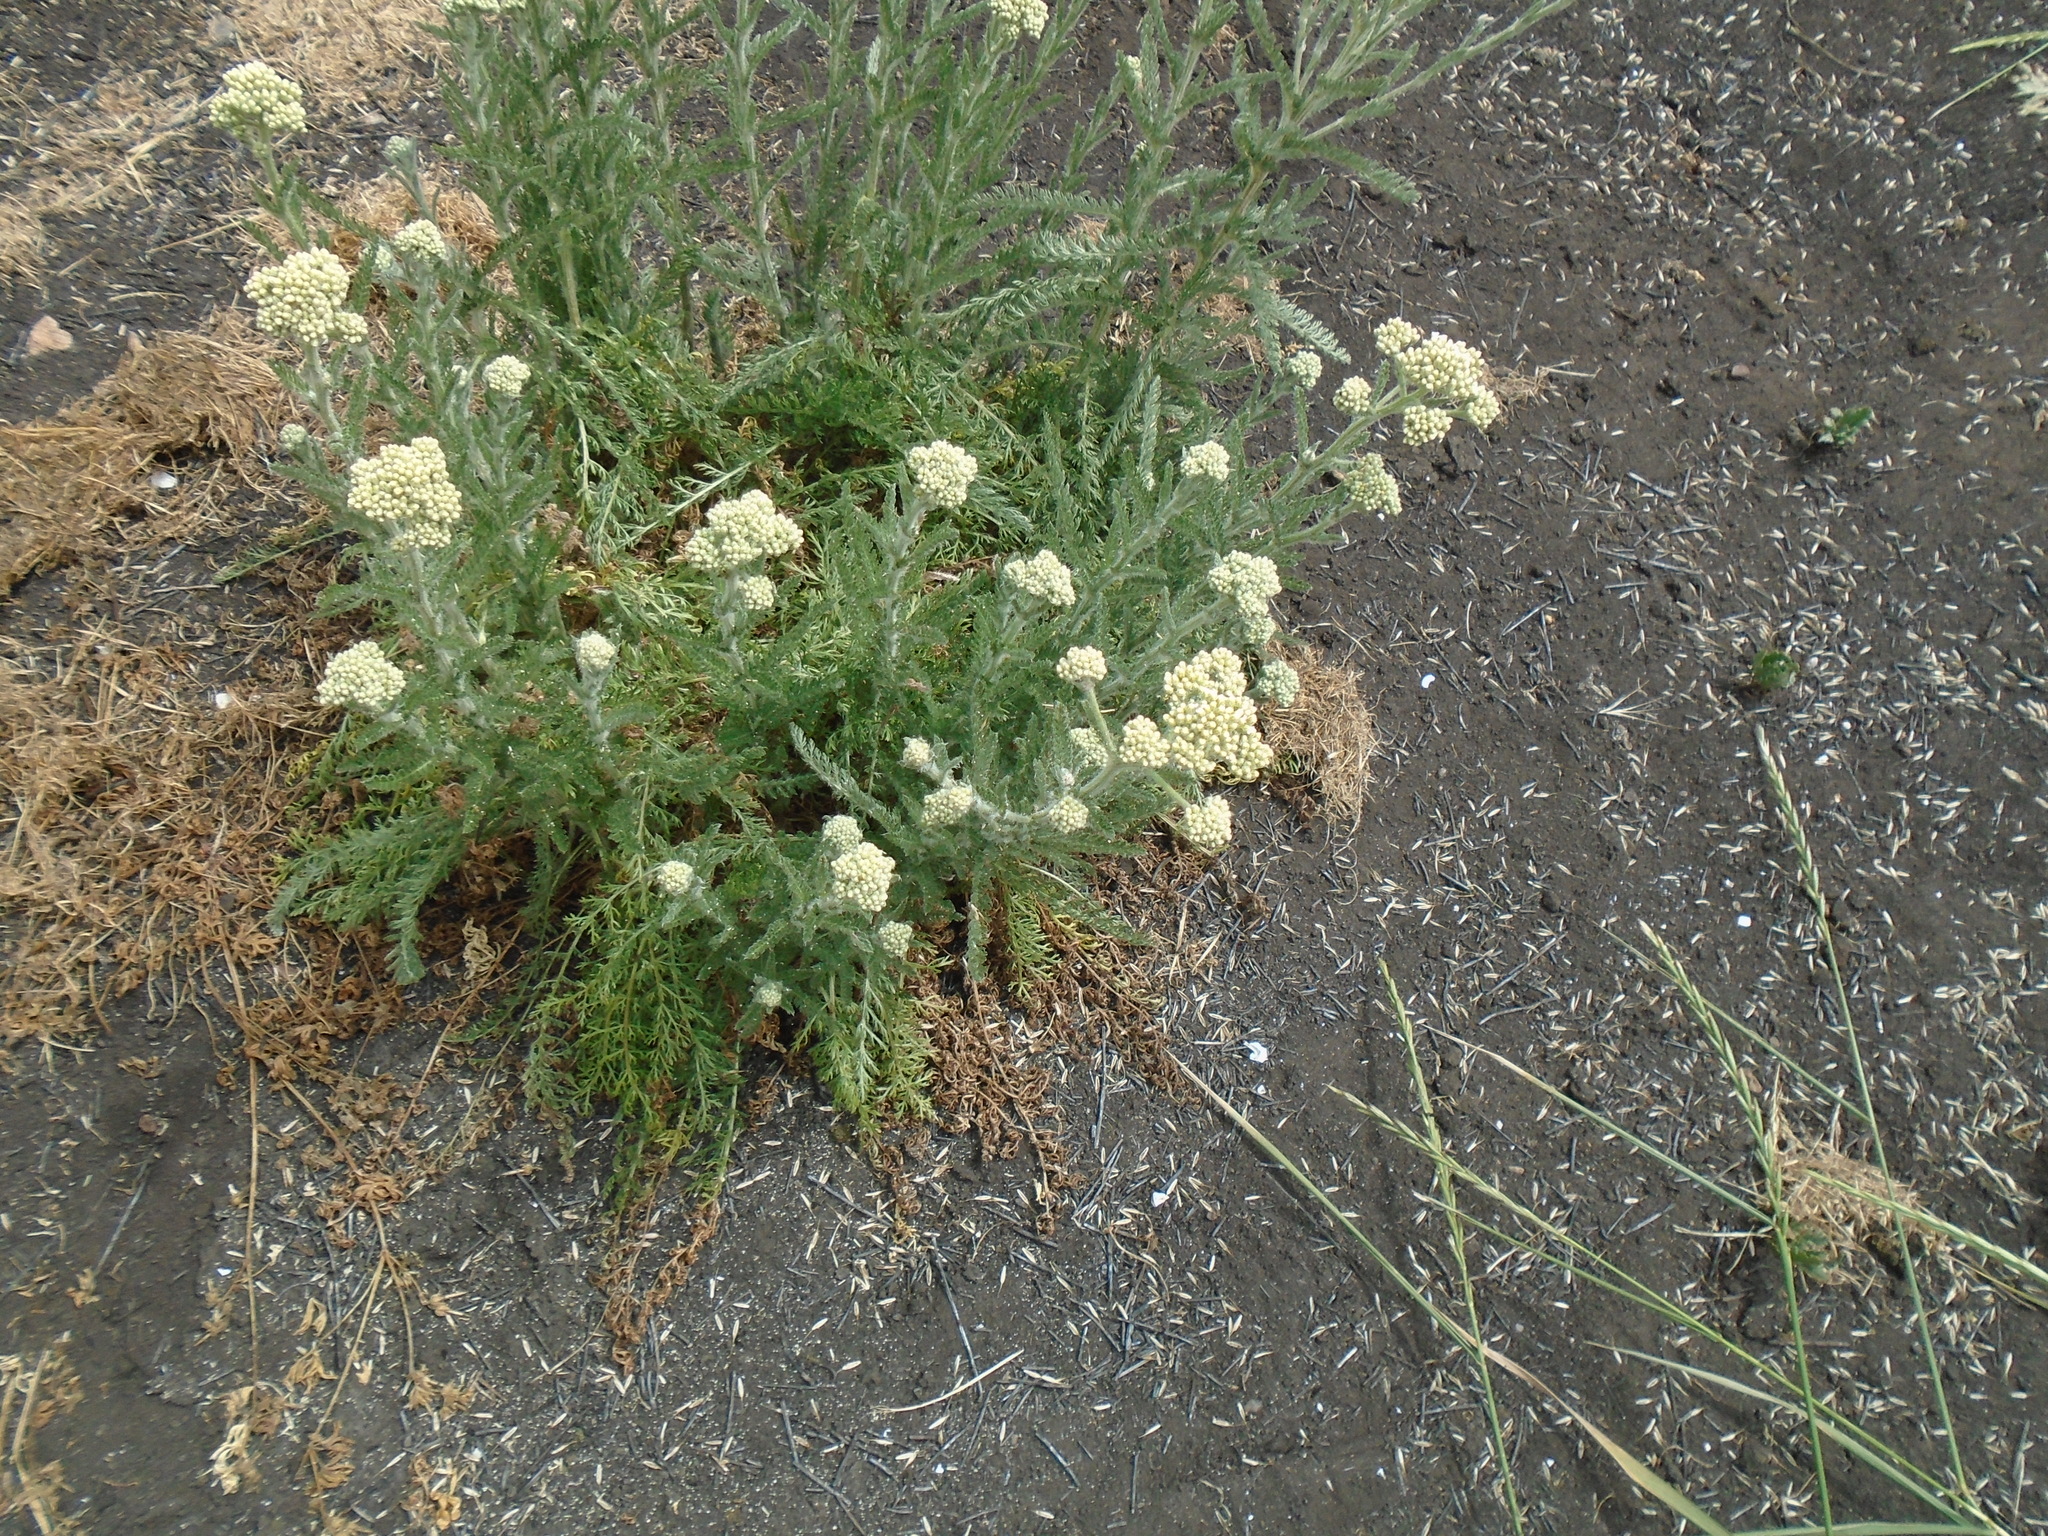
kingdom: Plantae
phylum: Tracheophyta
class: Magnoliopsida
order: Asterales
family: Asteraceae
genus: Achillea
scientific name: Achillea millefolium
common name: Yarrow
